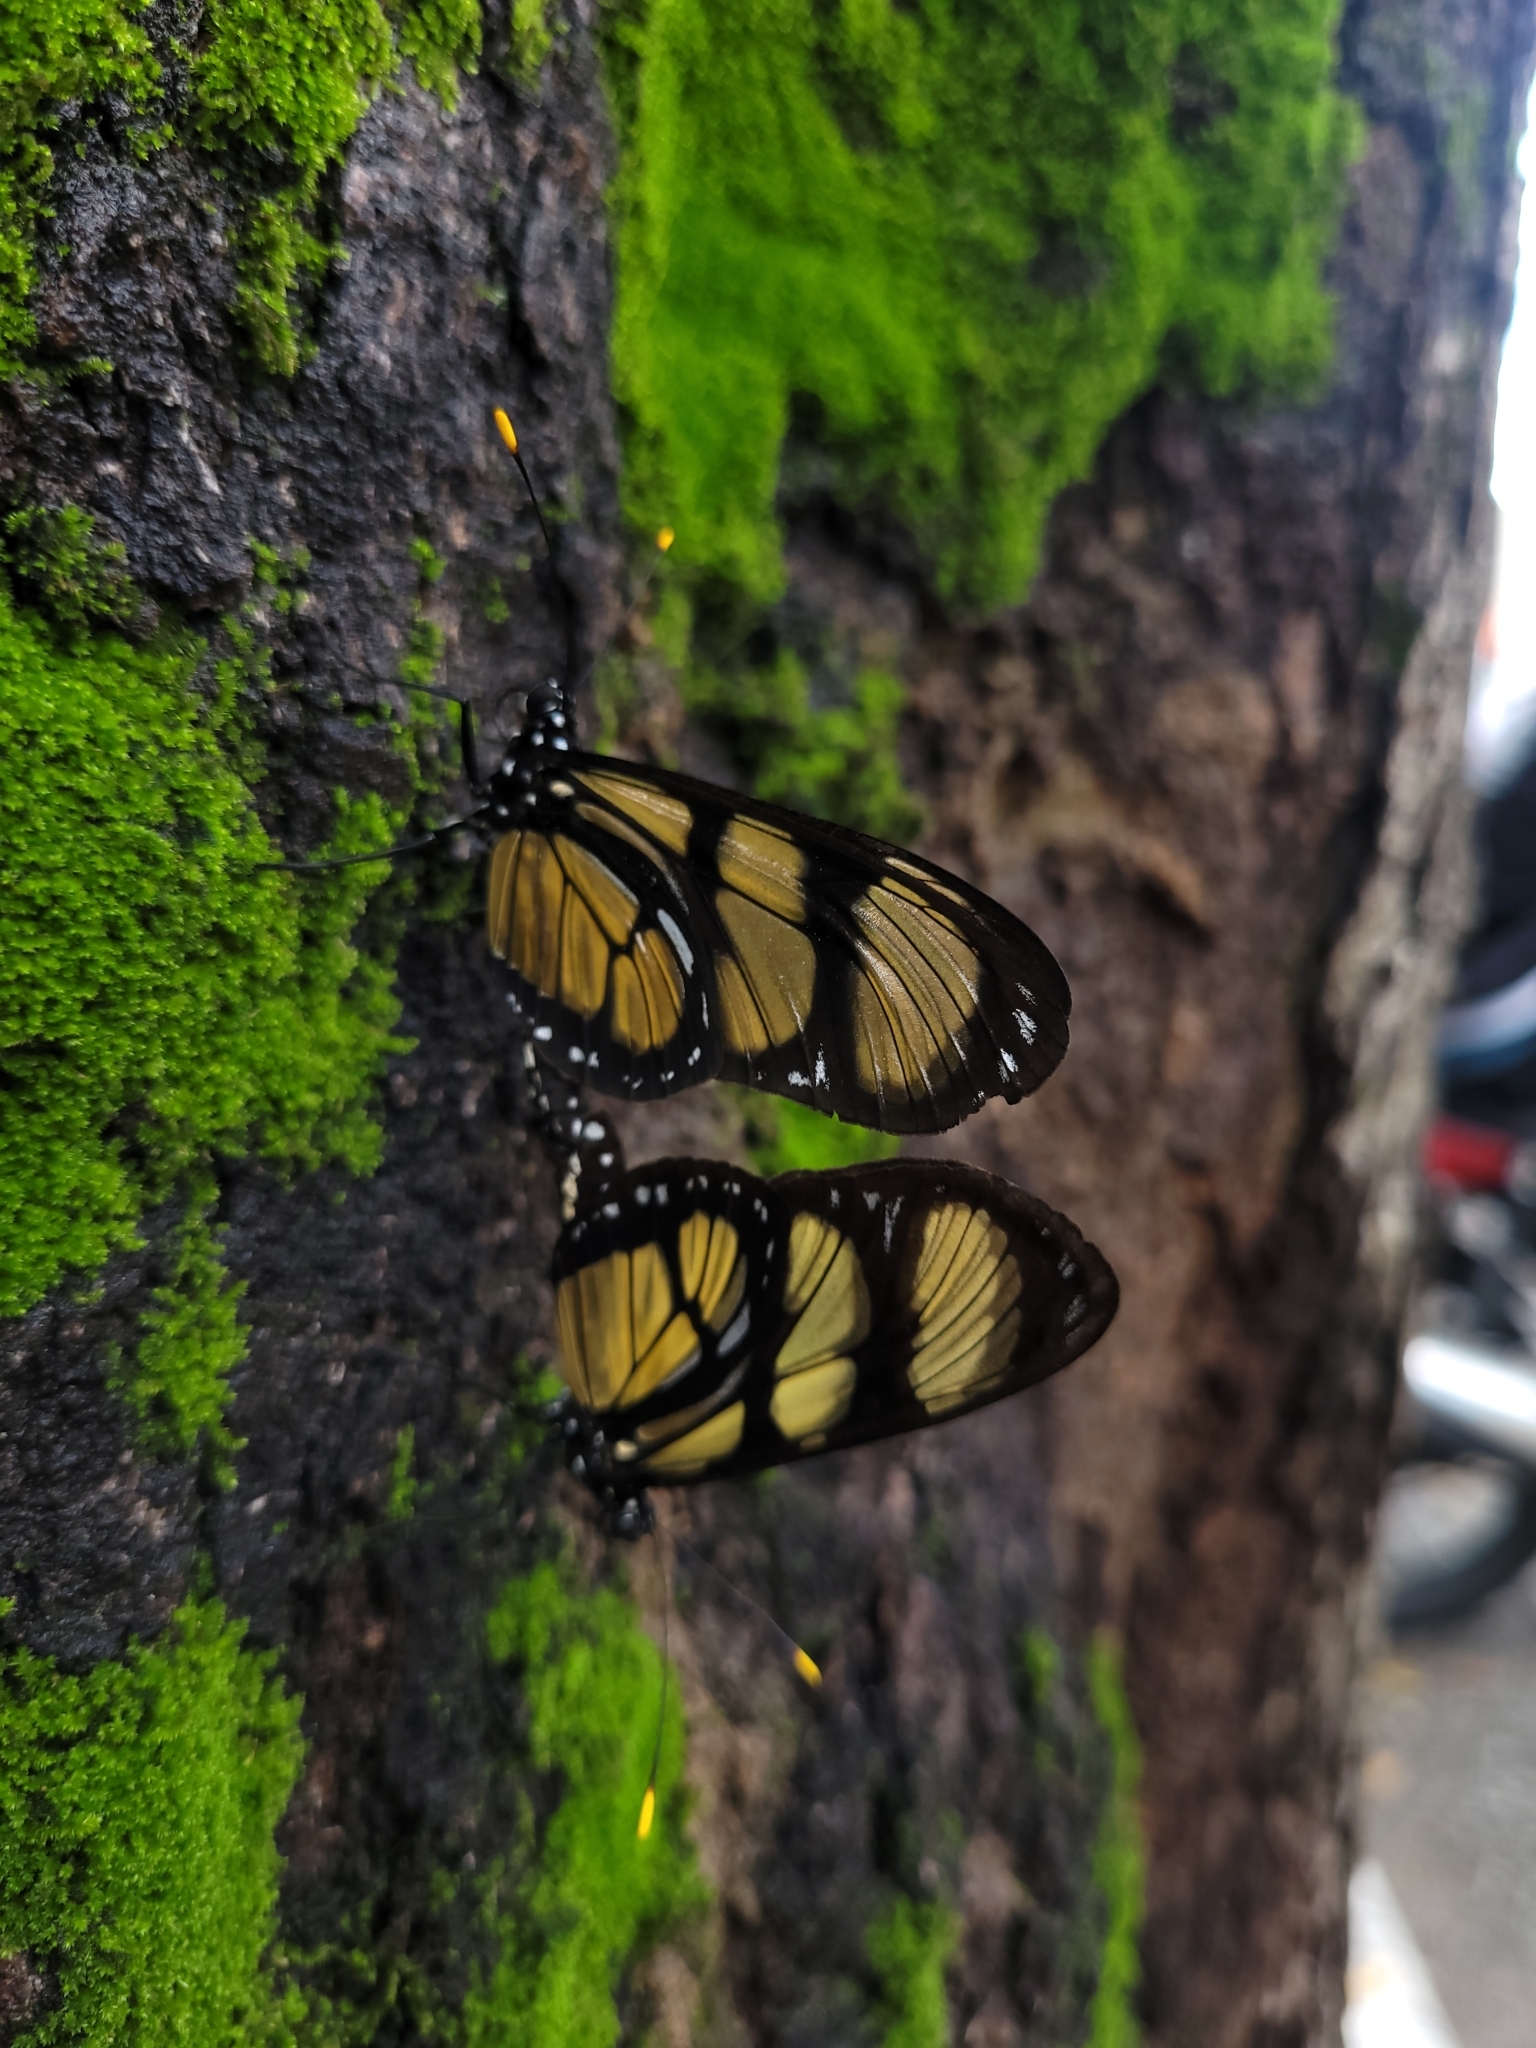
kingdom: Animalia
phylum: Arthropoda
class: Insecta
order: Lepidoptera
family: Nymphalidae
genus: Methona
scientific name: Methona themisto
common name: Themisto amberwing
